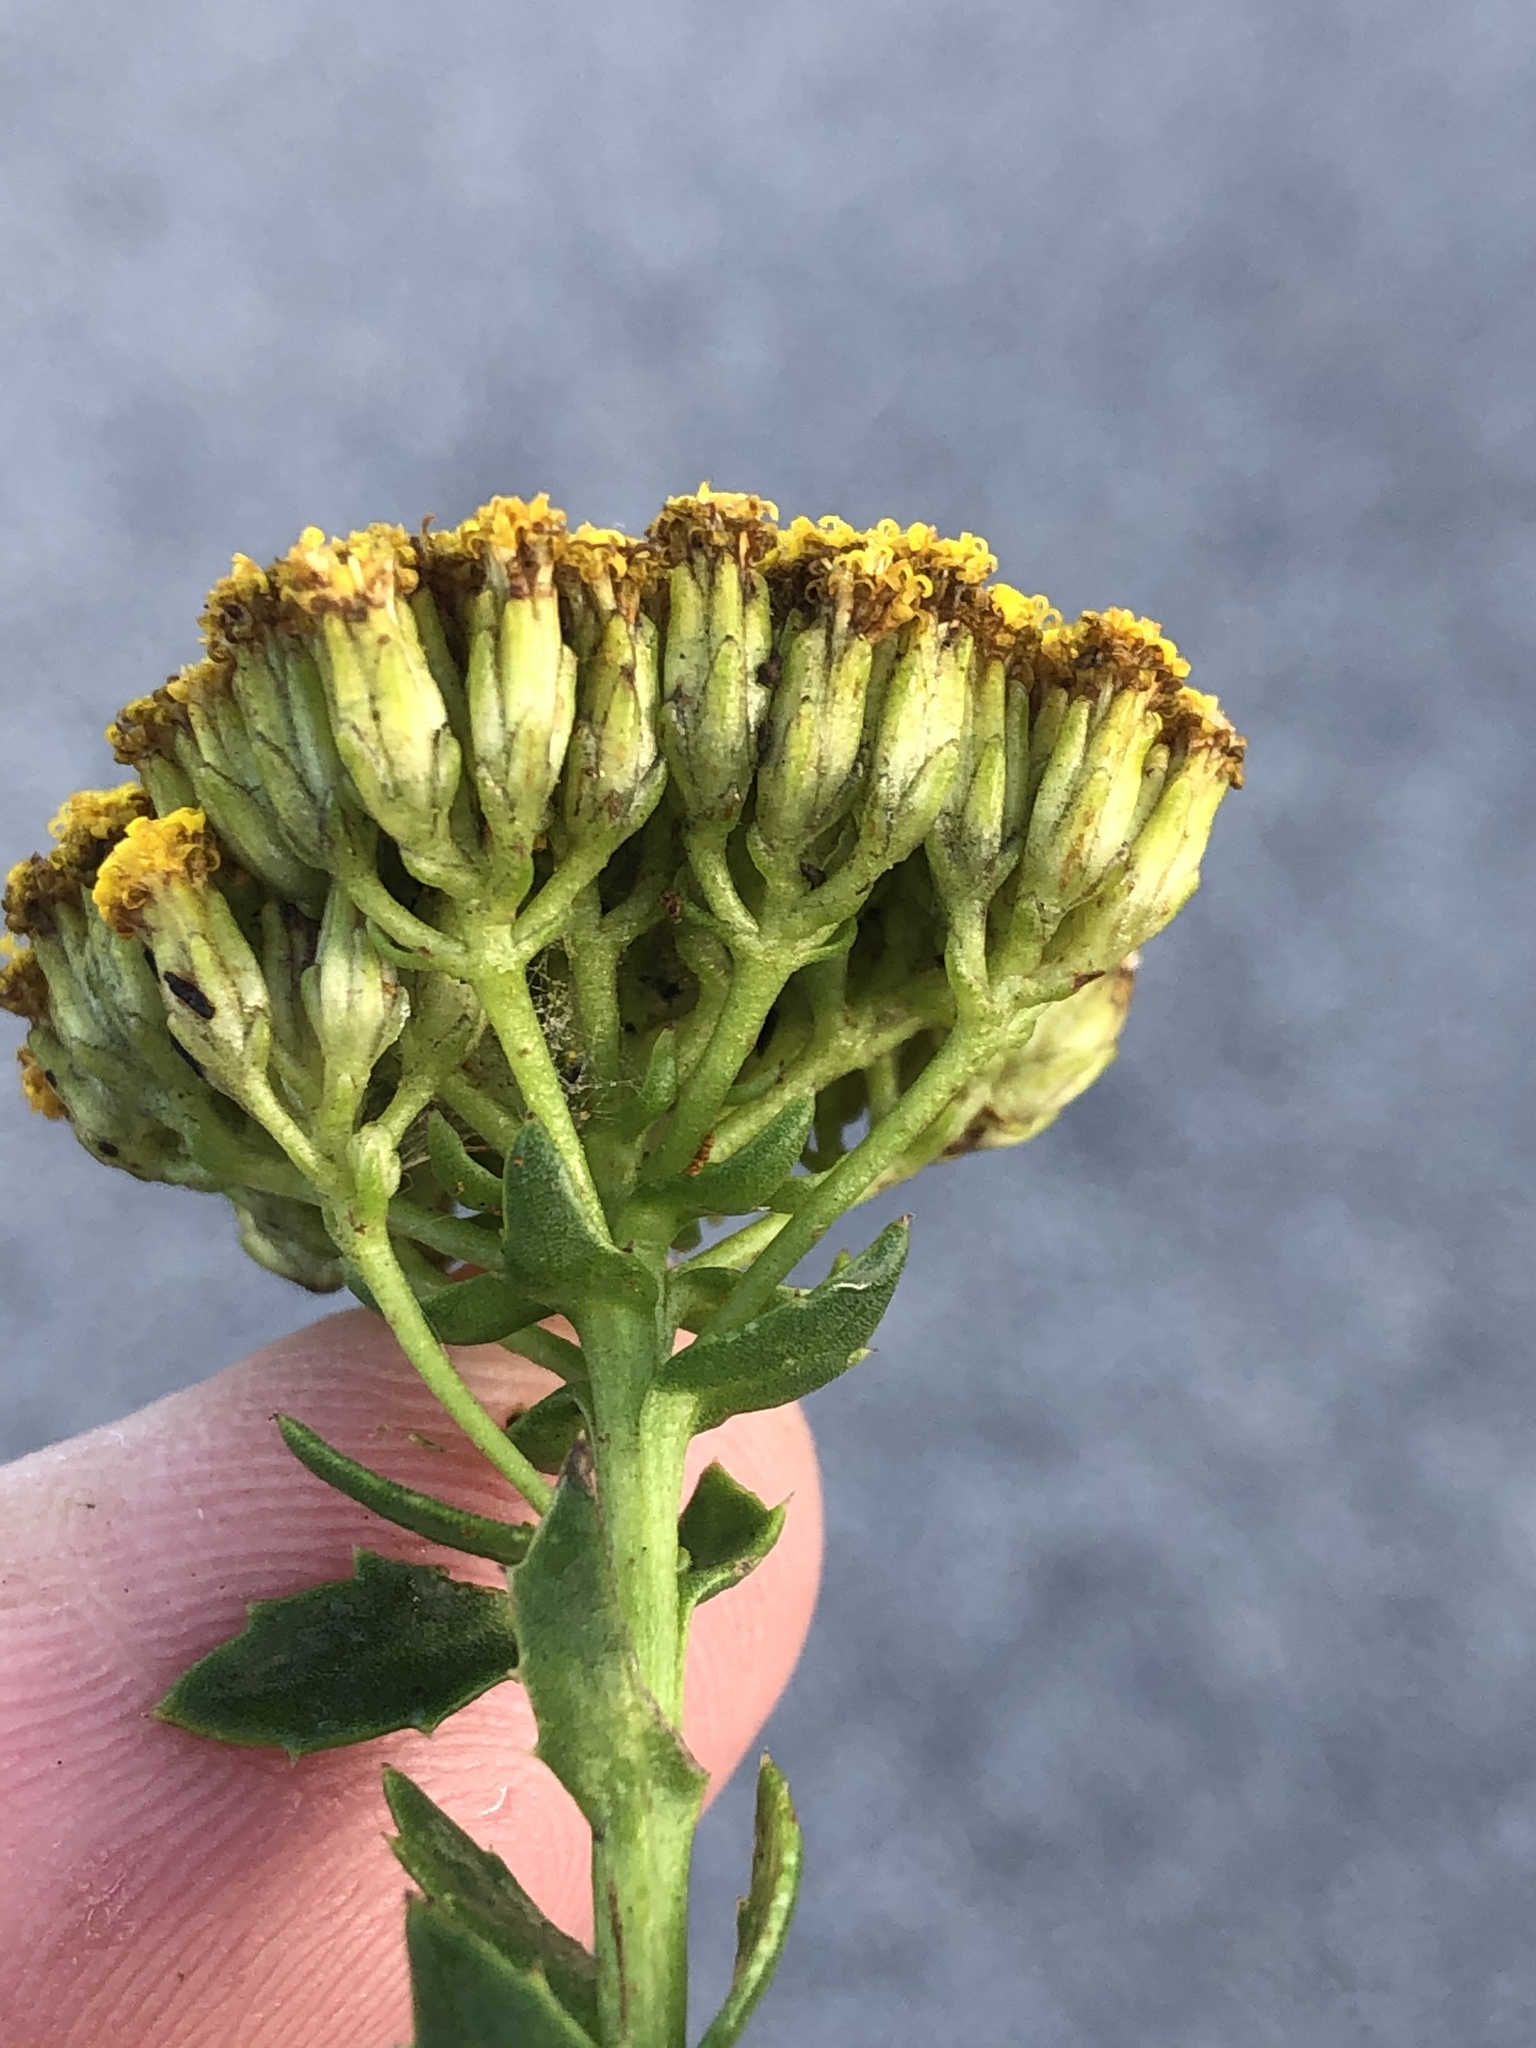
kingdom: Plantae
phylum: Tracheophyta
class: Magnoliopsida
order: Asterales
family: Asteraceae
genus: Athanasia
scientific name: Athanasia dentata
